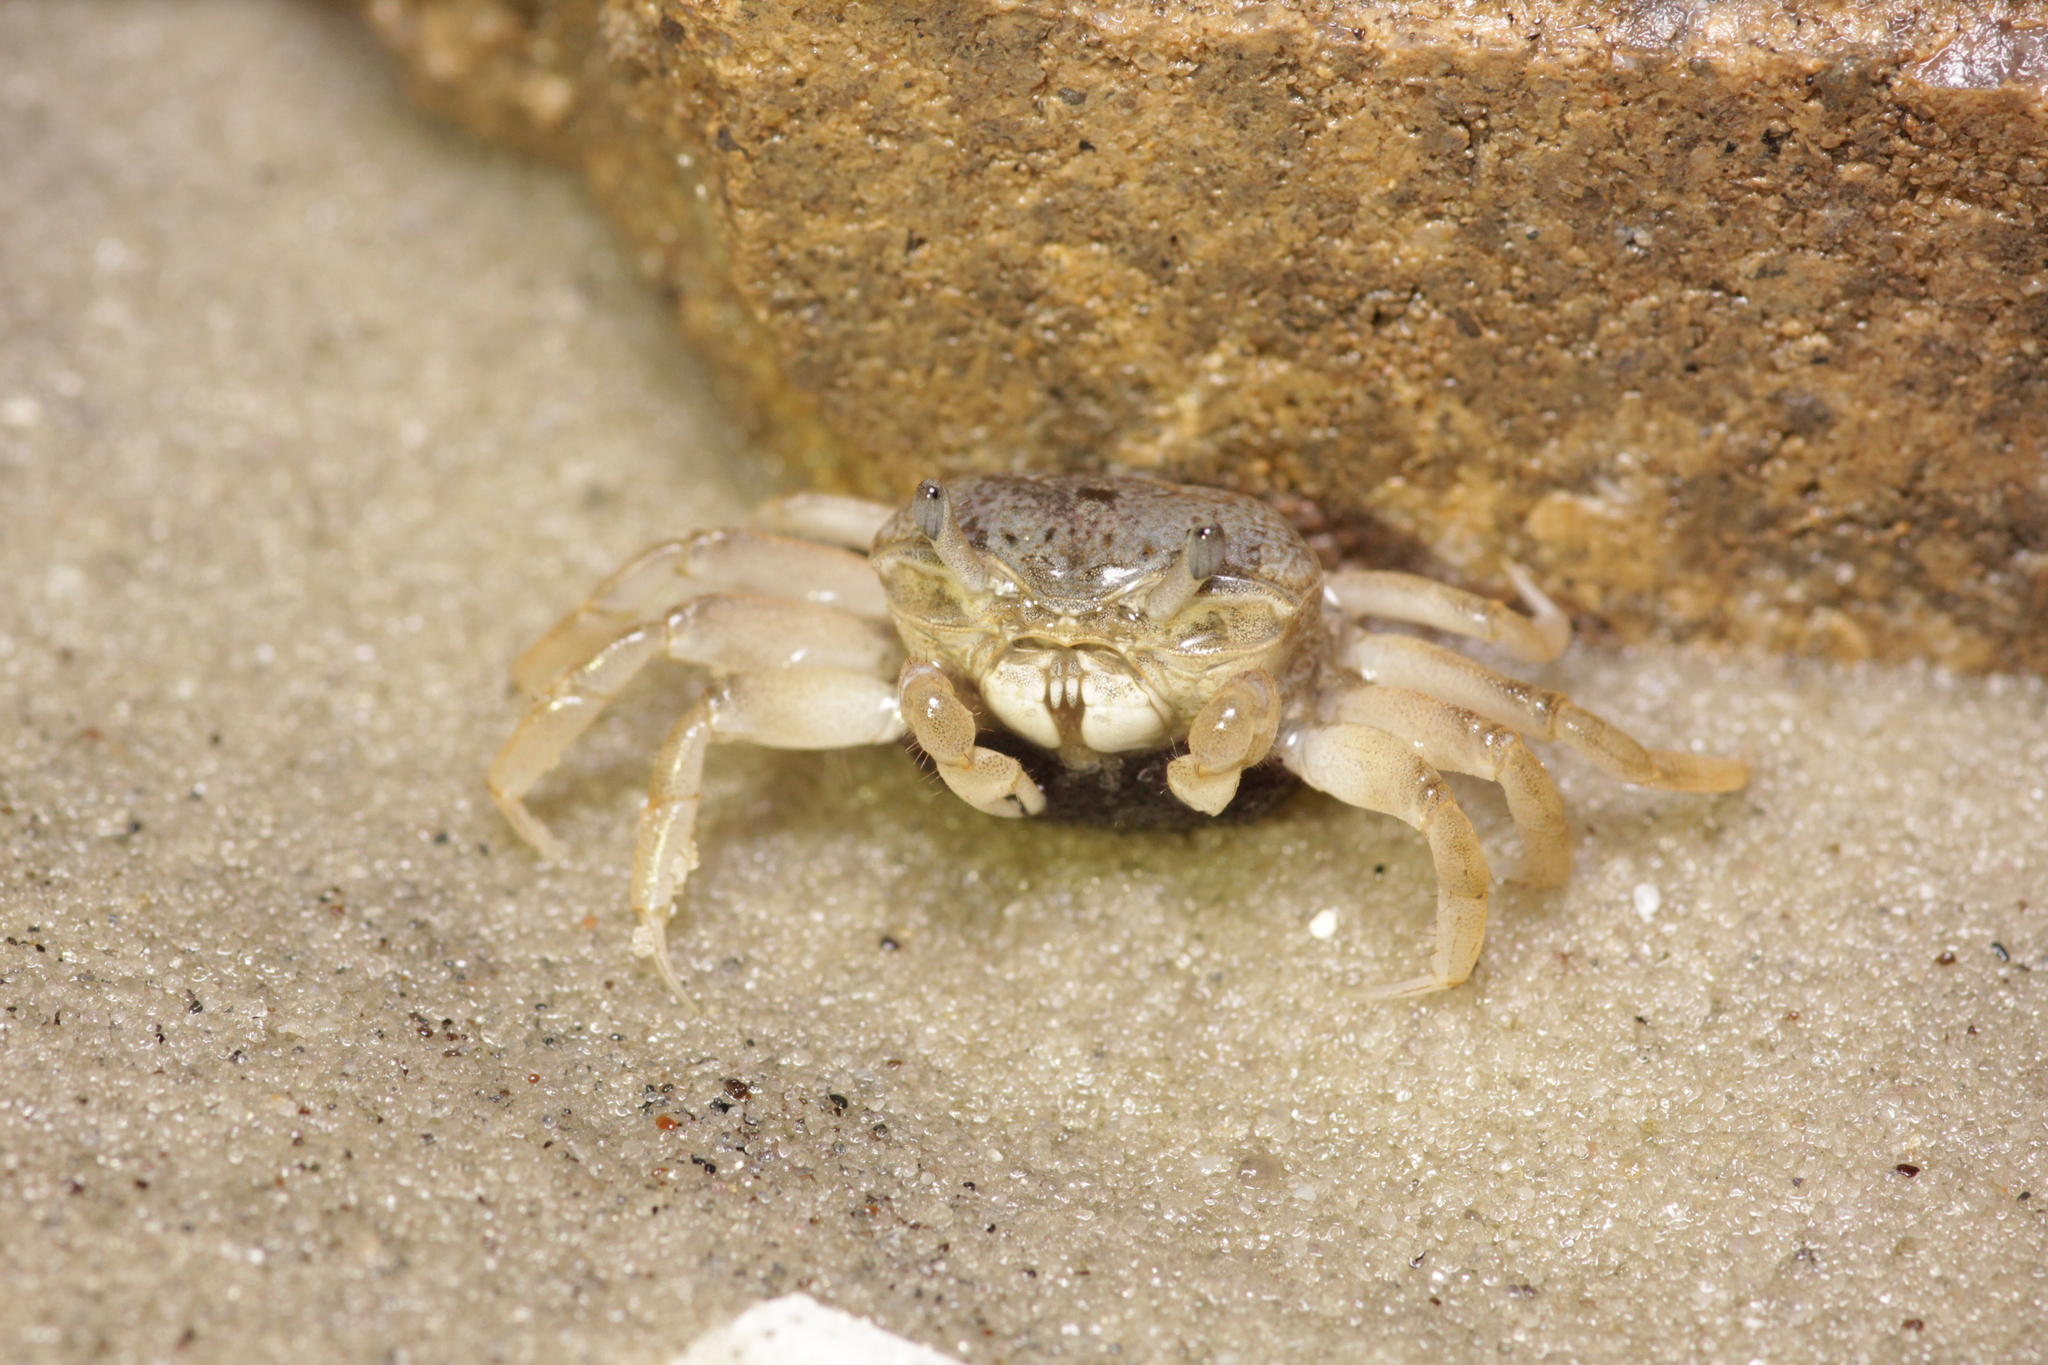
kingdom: Animalia
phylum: Arthropoda
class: Malacostraca
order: Decapoda
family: Ocypodidae
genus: Leptuca
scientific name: Leptuca pugilator
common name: Atlantic sand fiddler crab
